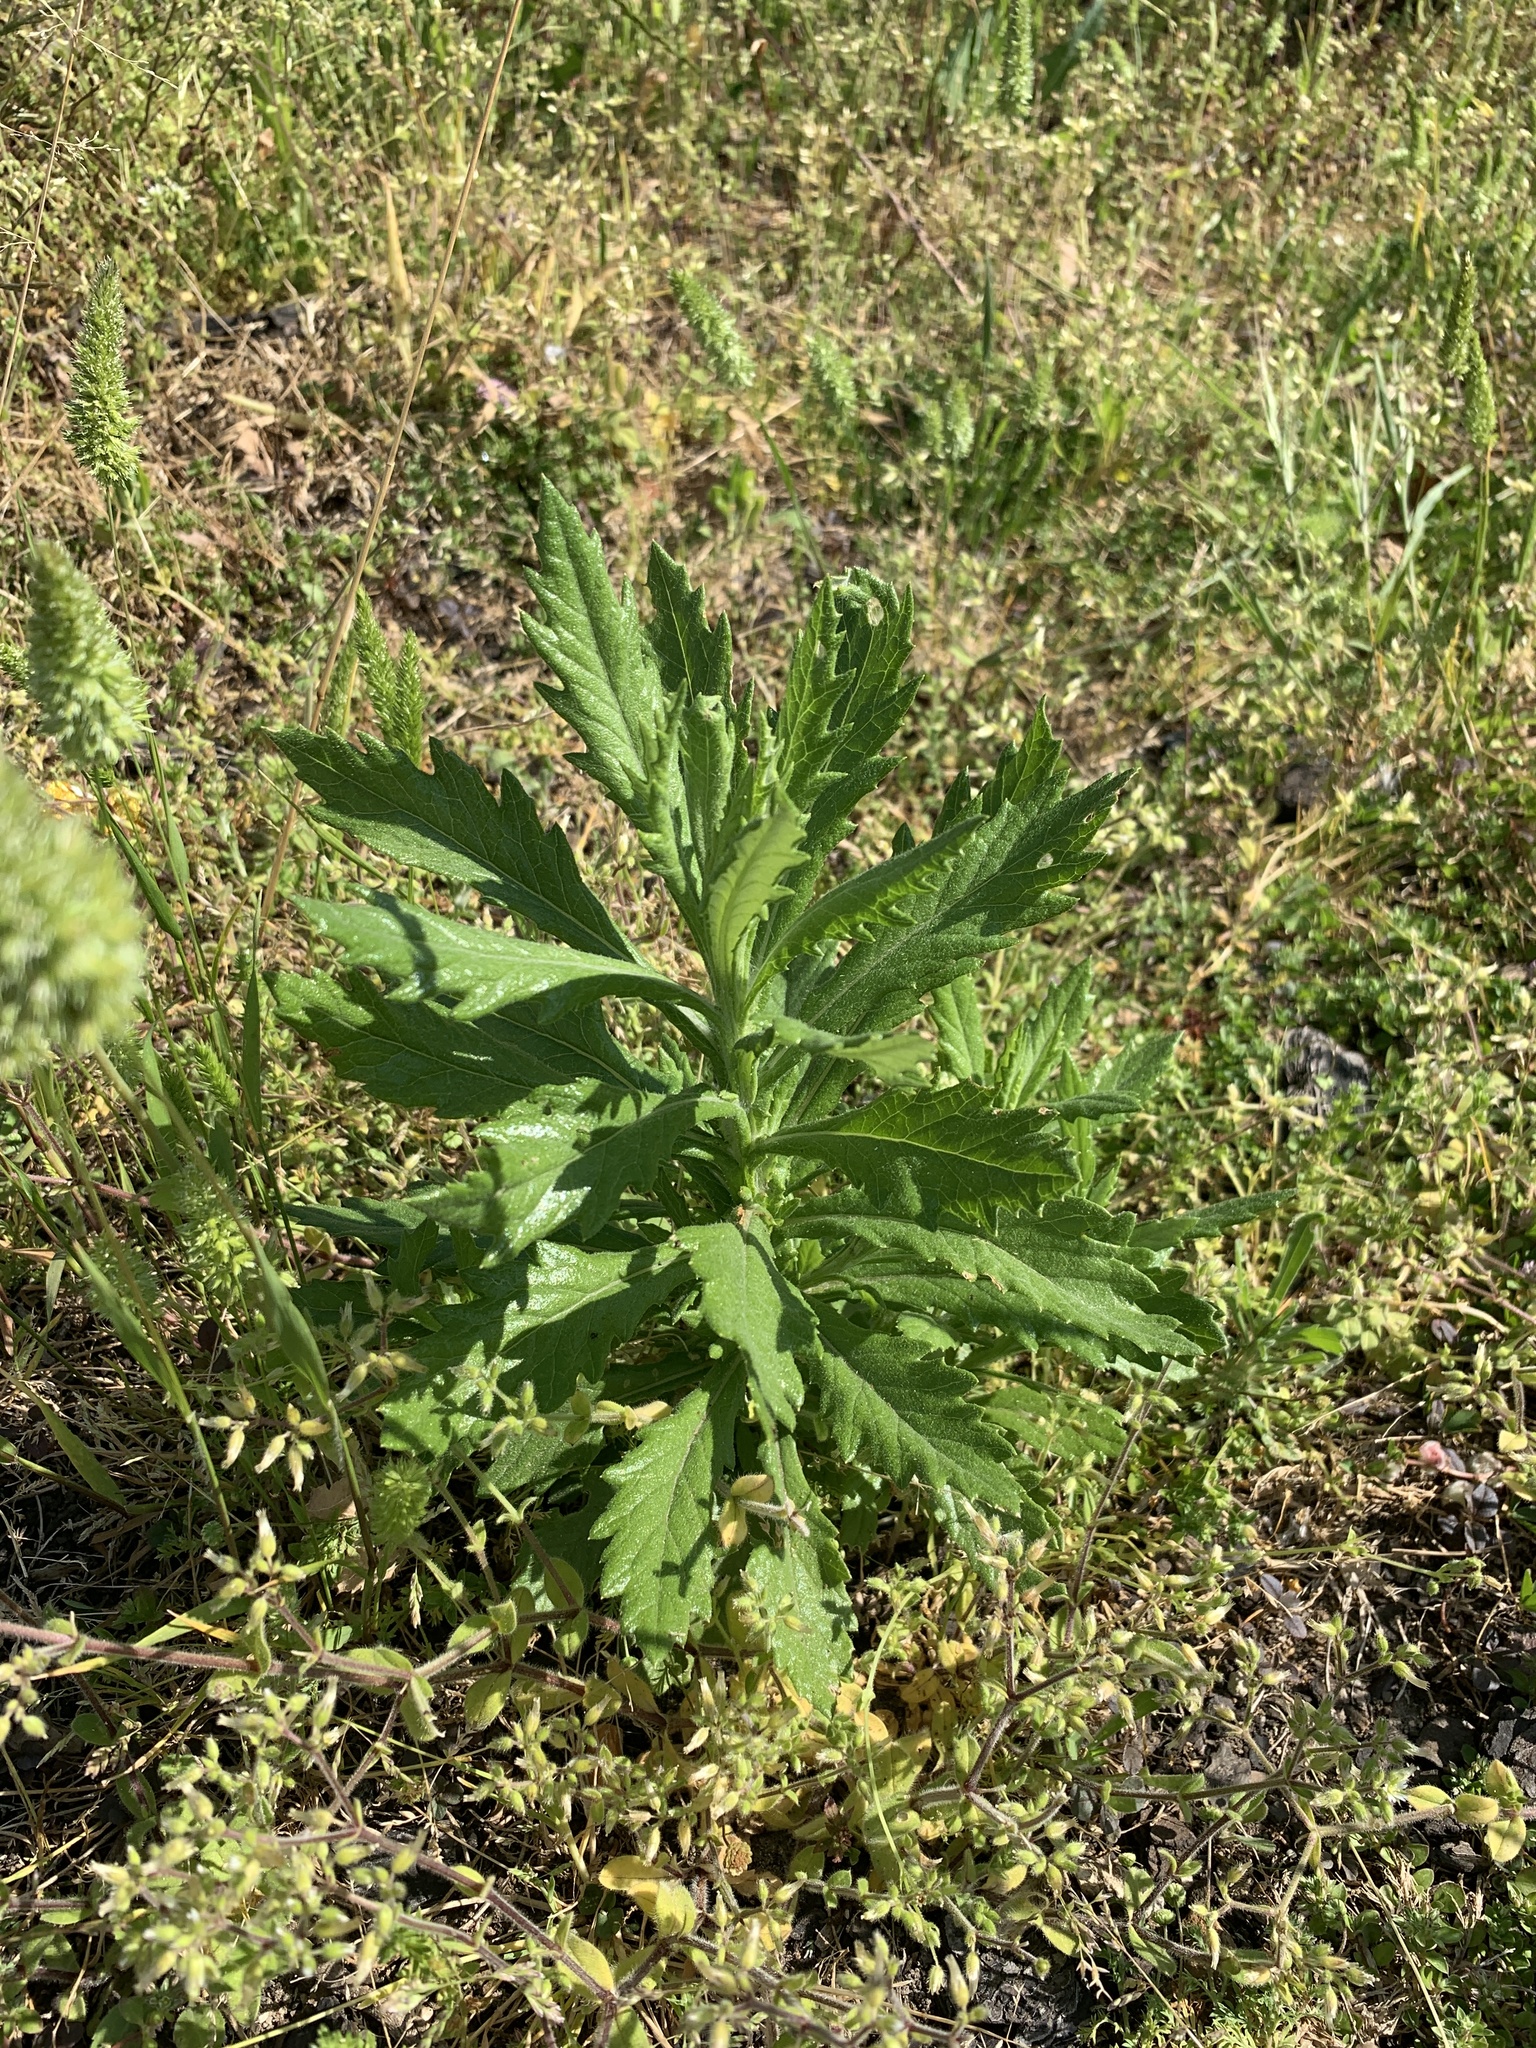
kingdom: Plantae
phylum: Tracheophyta
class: Magnoliopsida
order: Asterales
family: Asteraceae
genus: Senecio
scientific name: Senecio pterophorus
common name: Shoddy ragwort
